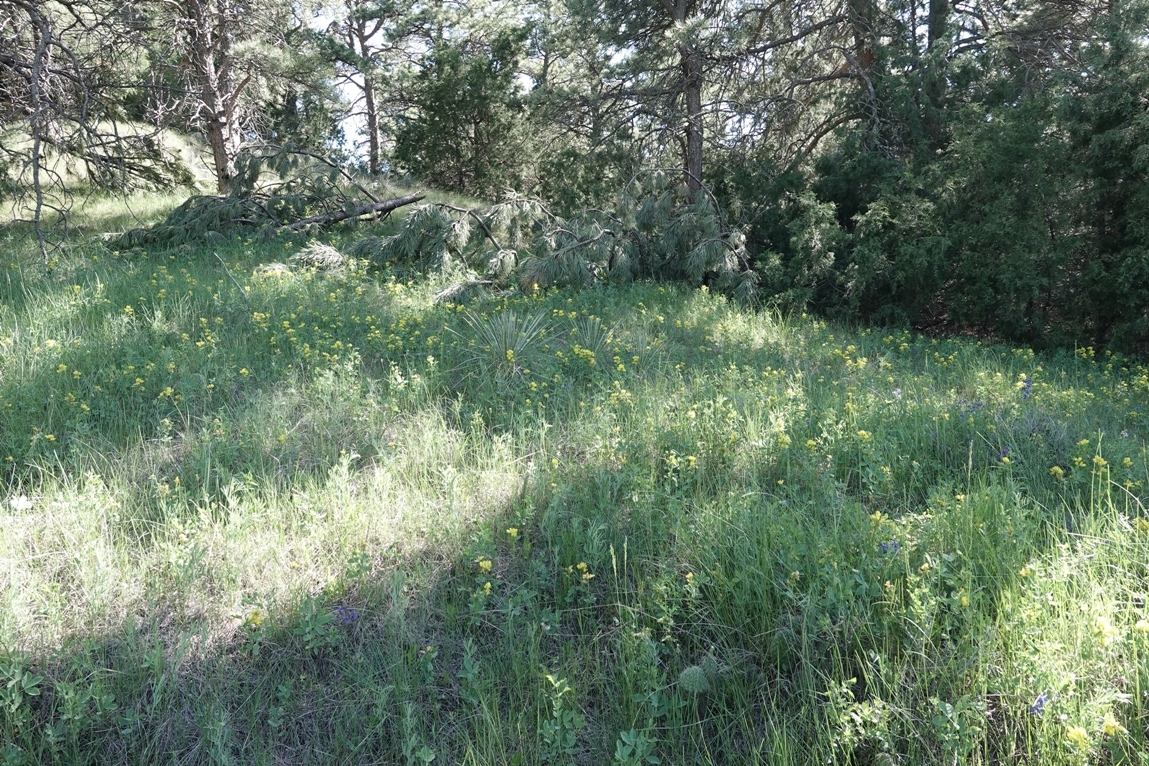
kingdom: Plantae
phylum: Tracheophyta
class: Magnoliopsida
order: Fabales
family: Fabaceae
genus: Thermopsis
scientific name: Thermopsis rhombifolia
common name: Circle-pod-pea
